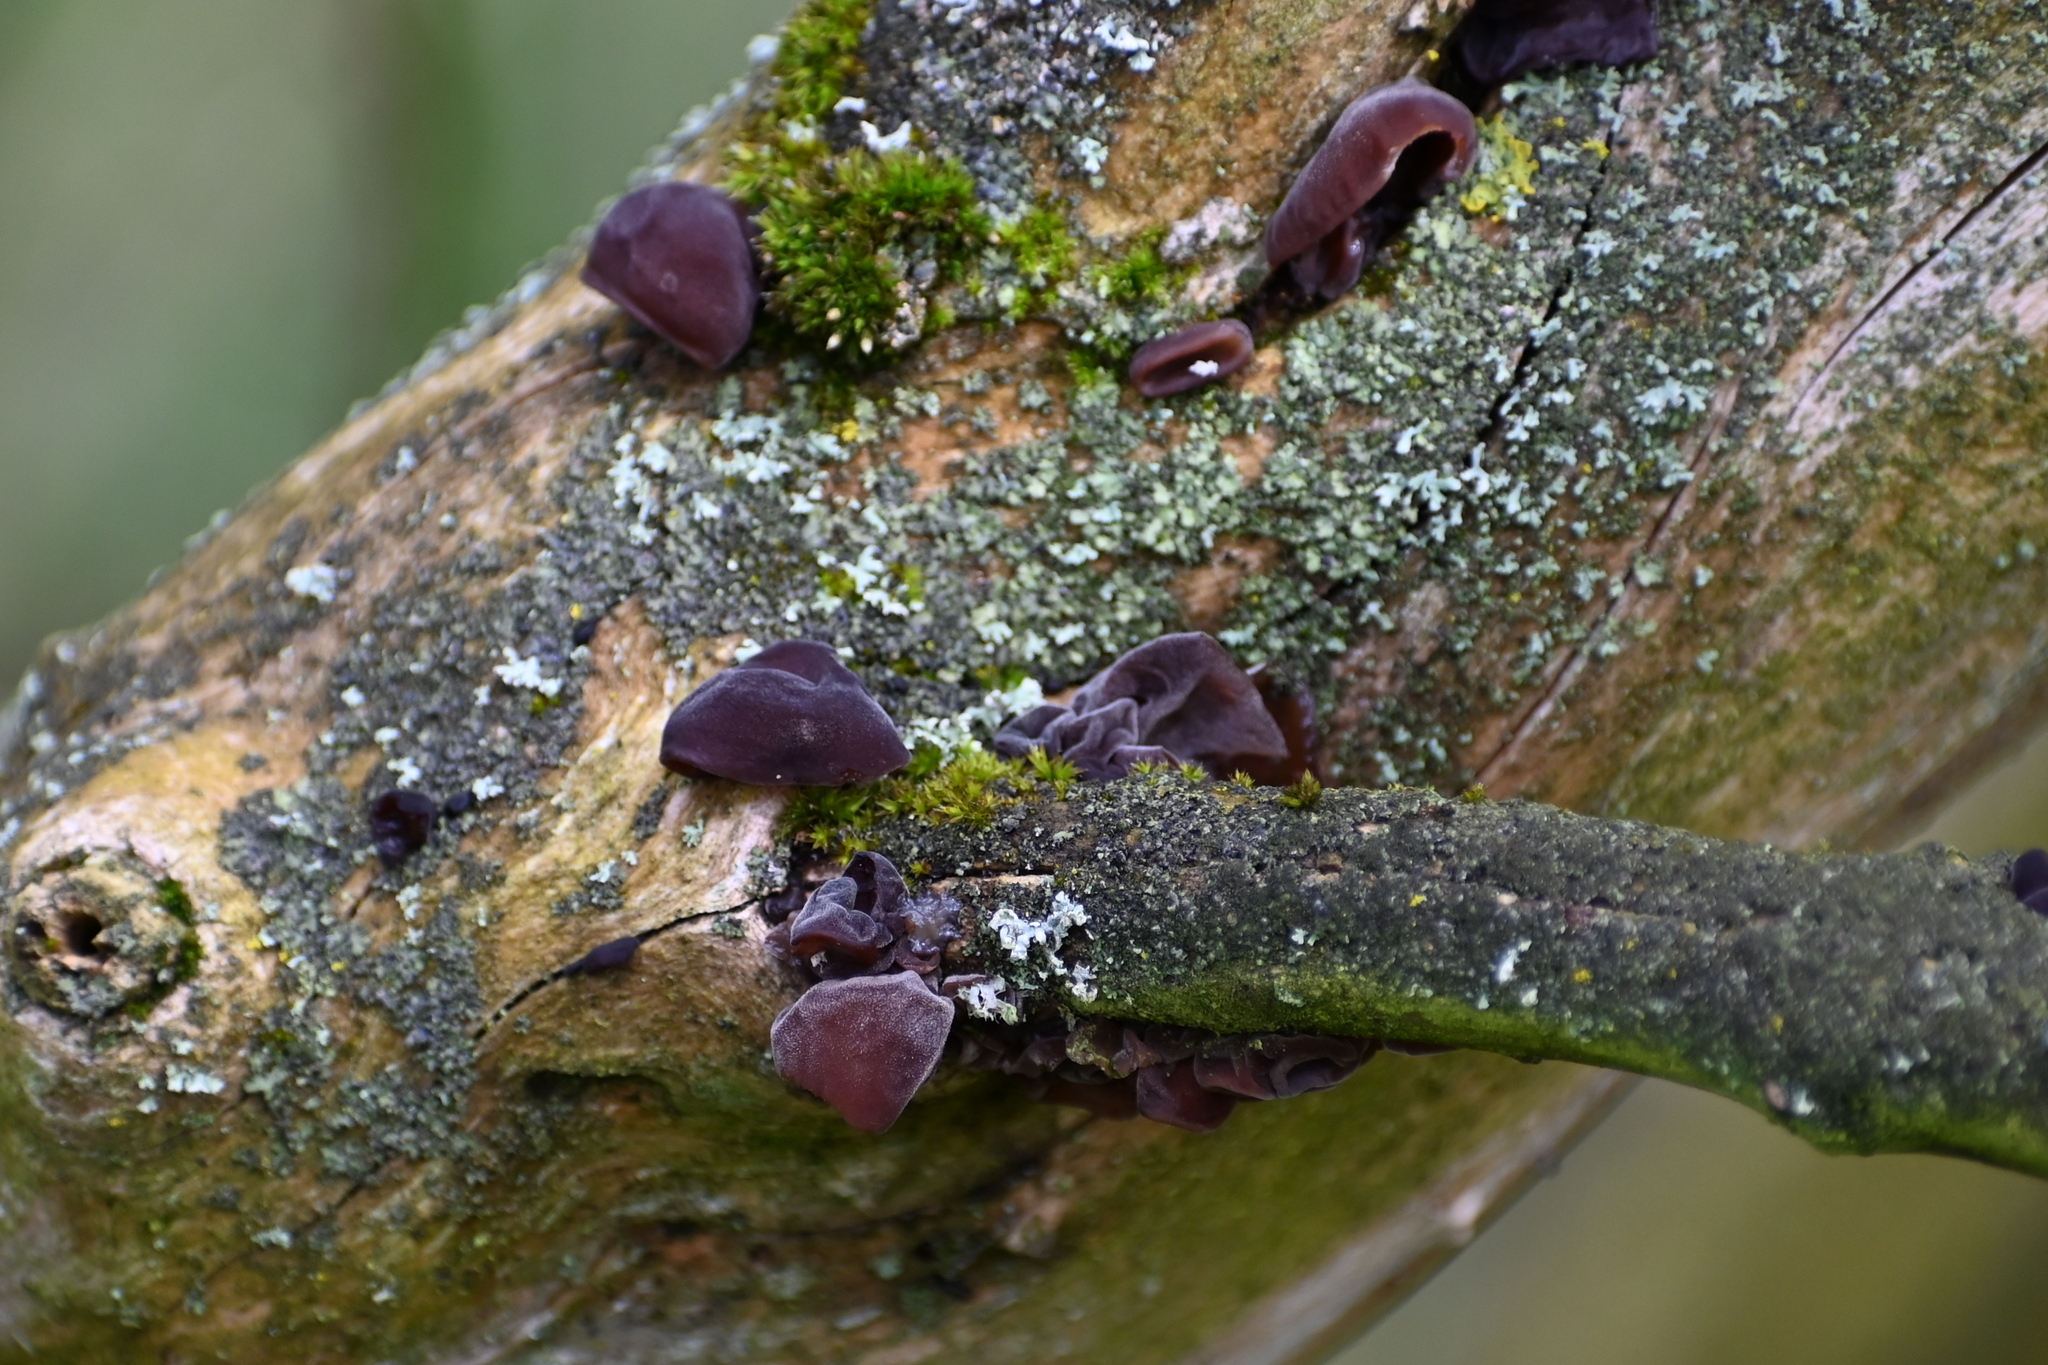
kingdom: Fungi
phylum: Basidiomycota
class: Agaricomycetes
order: Auriculariales
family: Auriculariaceae
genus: Auricularia
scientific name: Auricularia auricula-judae
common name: Jelly ear
